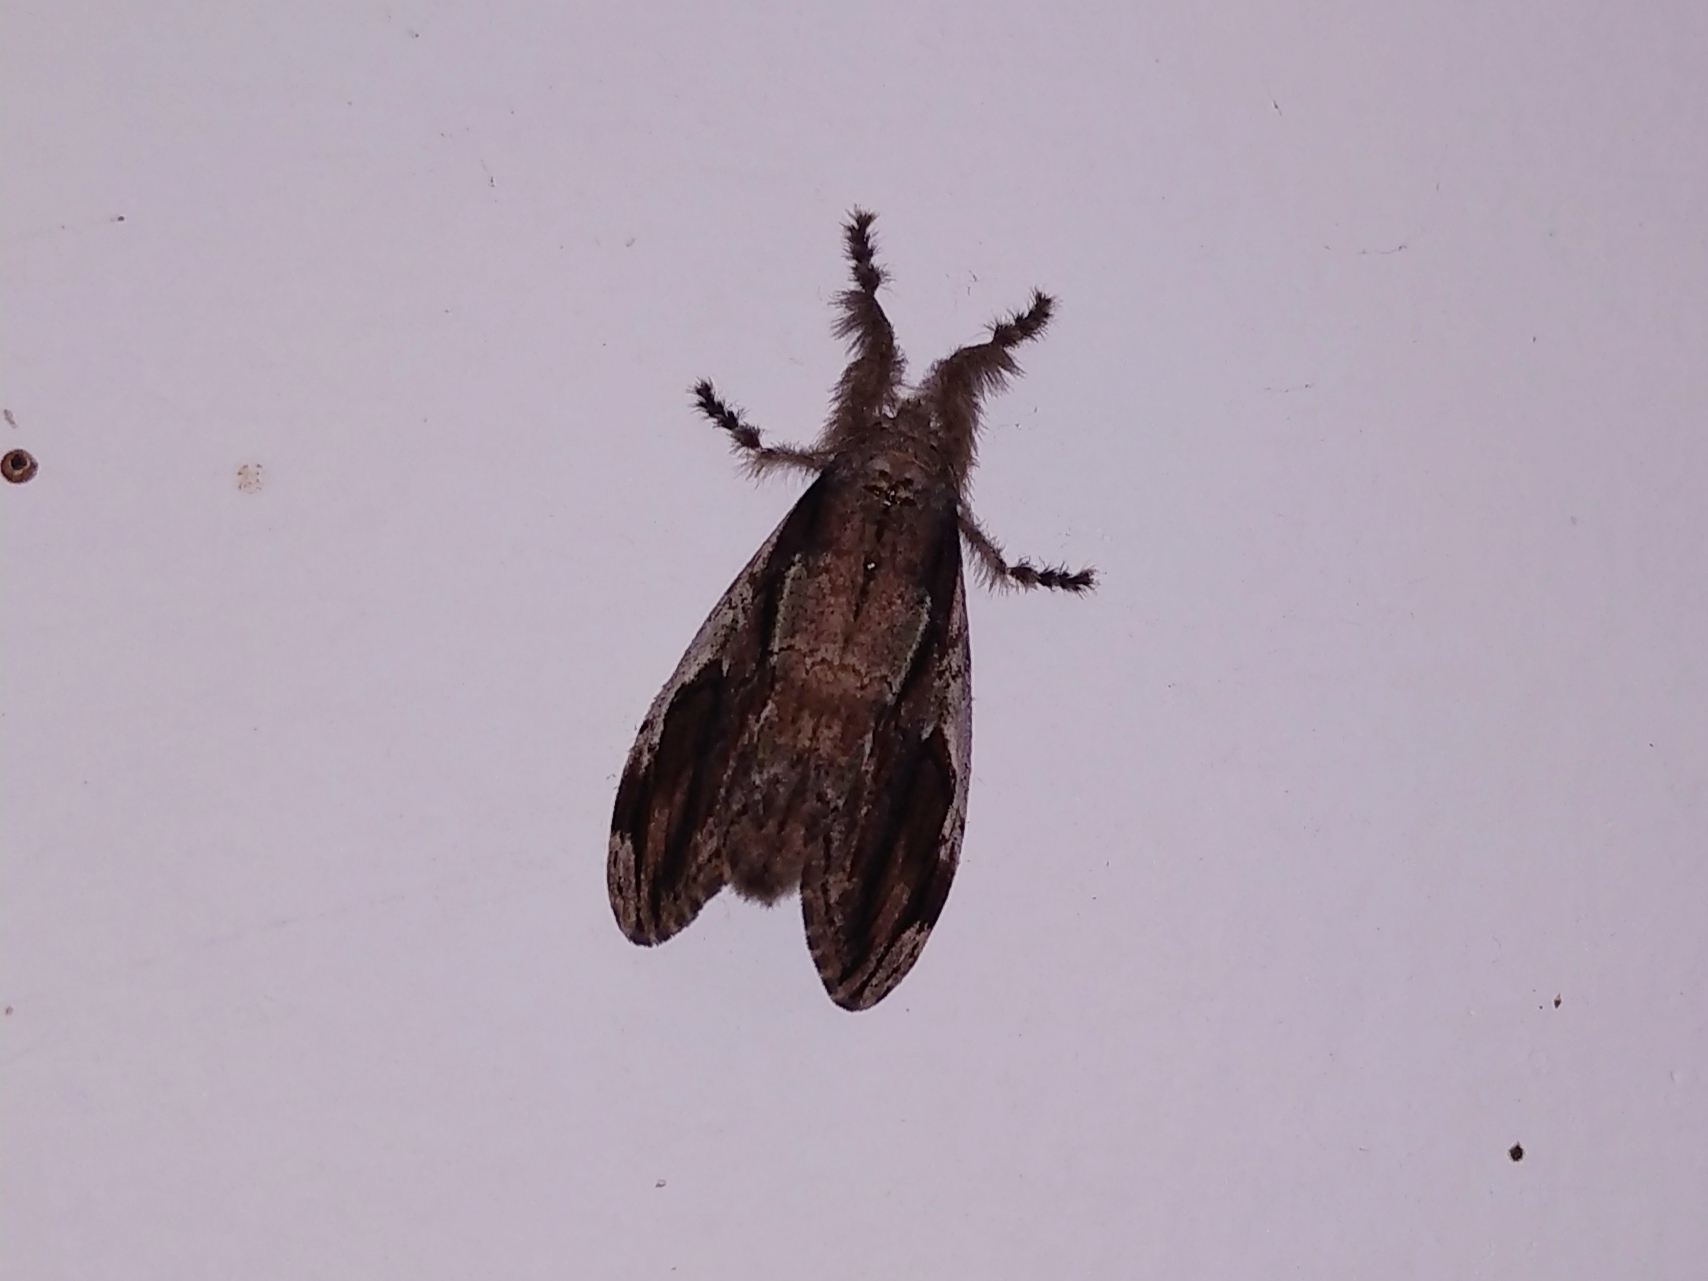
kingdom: Animalia
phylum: Arthropoda
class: Insecta
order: Lepidoptera
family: Erebidae
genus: Orgyia
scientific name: Orgyia postica
